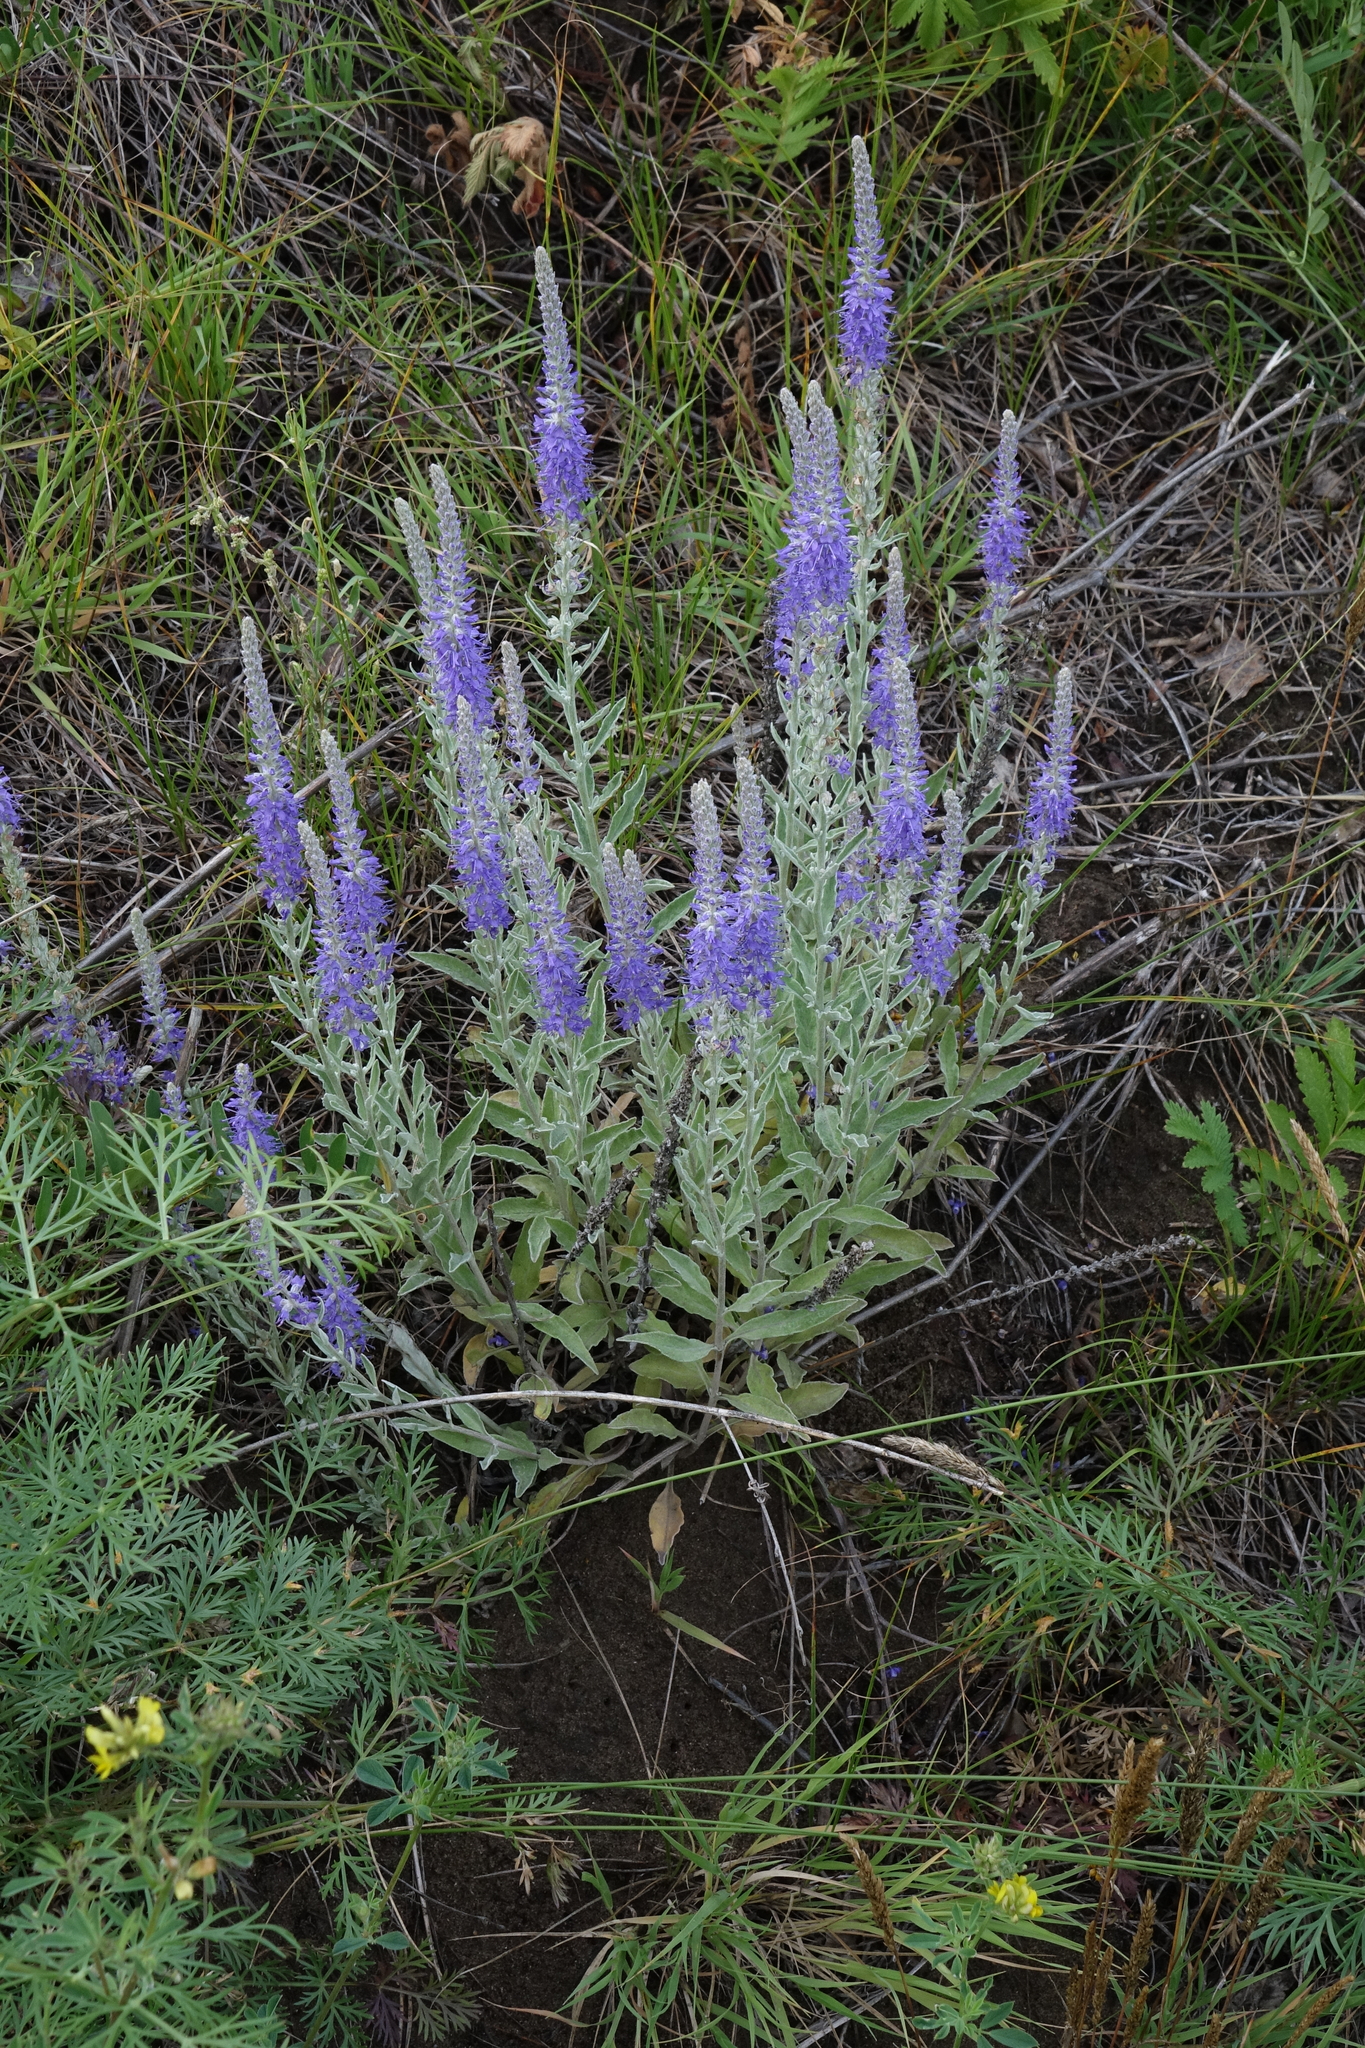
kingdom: Plantae
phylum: Tracheophyta
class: Magnoliopsida
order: Lamiales
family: Plantaginaceae
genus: Veronica
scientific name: Veronica incana
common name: Silver speedwell
